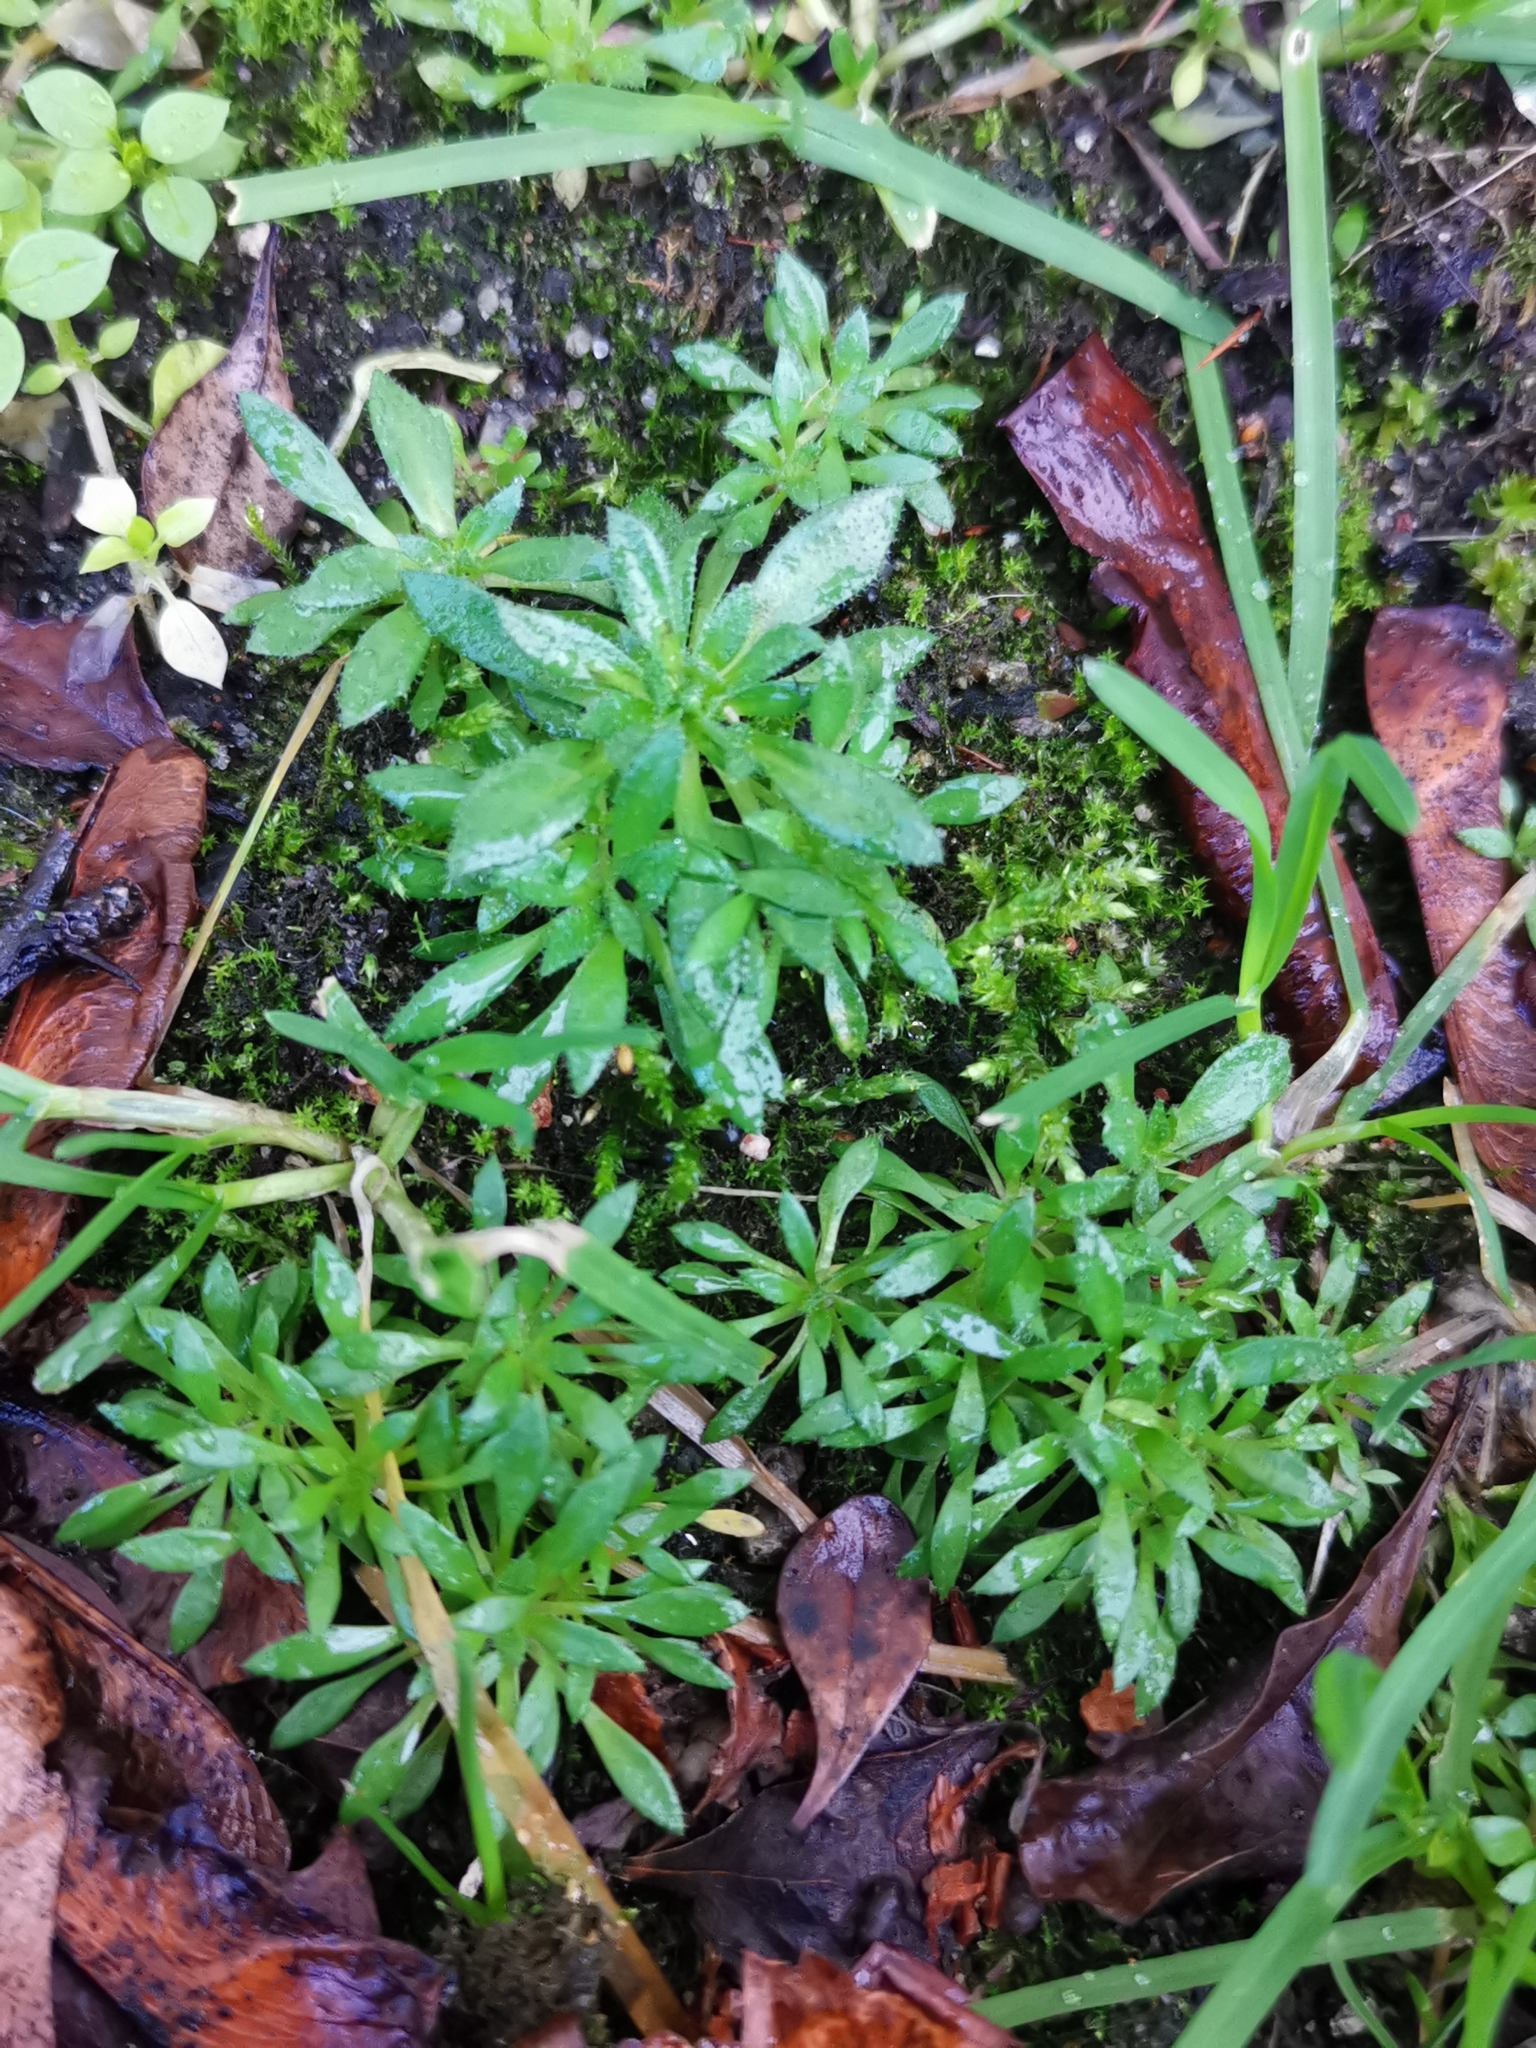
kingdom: Plantae
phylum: Tracheophyta
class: Magnoliopsida
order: Brassicales
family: Brassicaceae
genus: Draba
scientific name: Draba verna
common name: Spring draba
